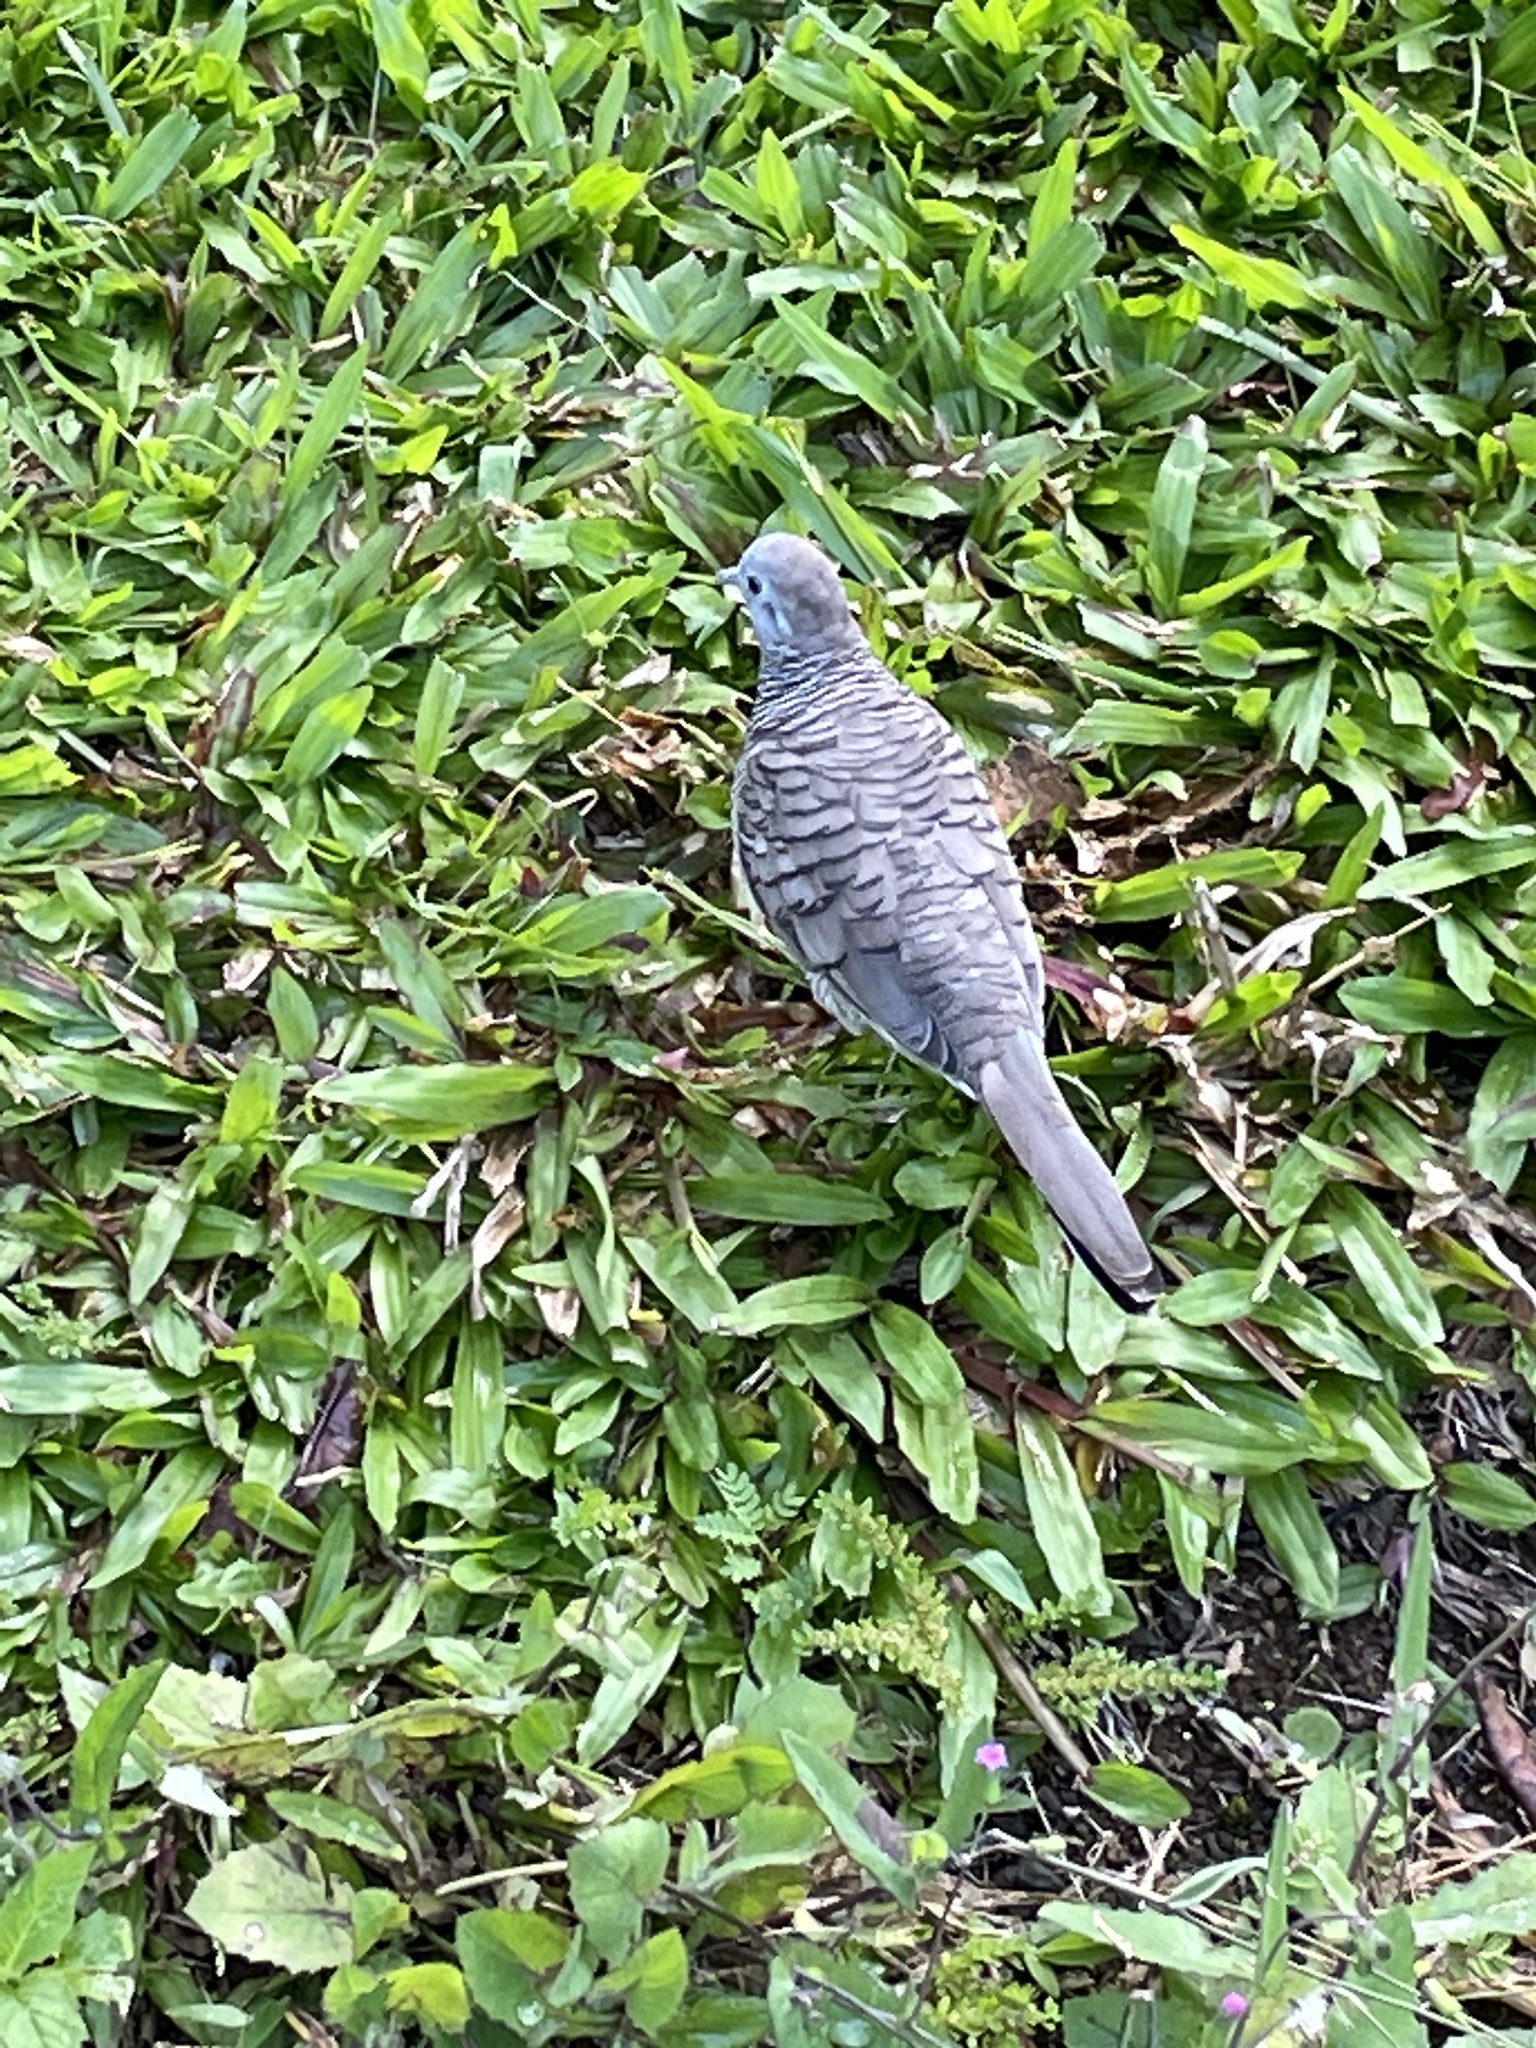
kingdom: Animalia
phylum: Chordata
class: Aves
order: Columbiformes
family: Columbidae
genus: Geopelia
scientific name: Geopelia striata
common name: Zebra dove
